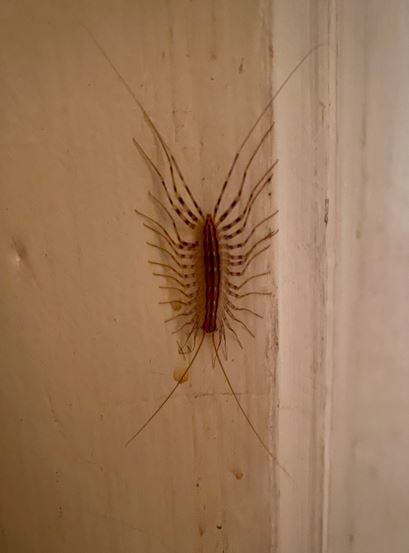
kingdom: Animalia
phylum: Arthropoda
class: Chilopoda
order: Scutigeromorpha
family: Scutigeridae
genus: Scutigera
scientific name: Scutigera coleoptrata
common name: House centipede
